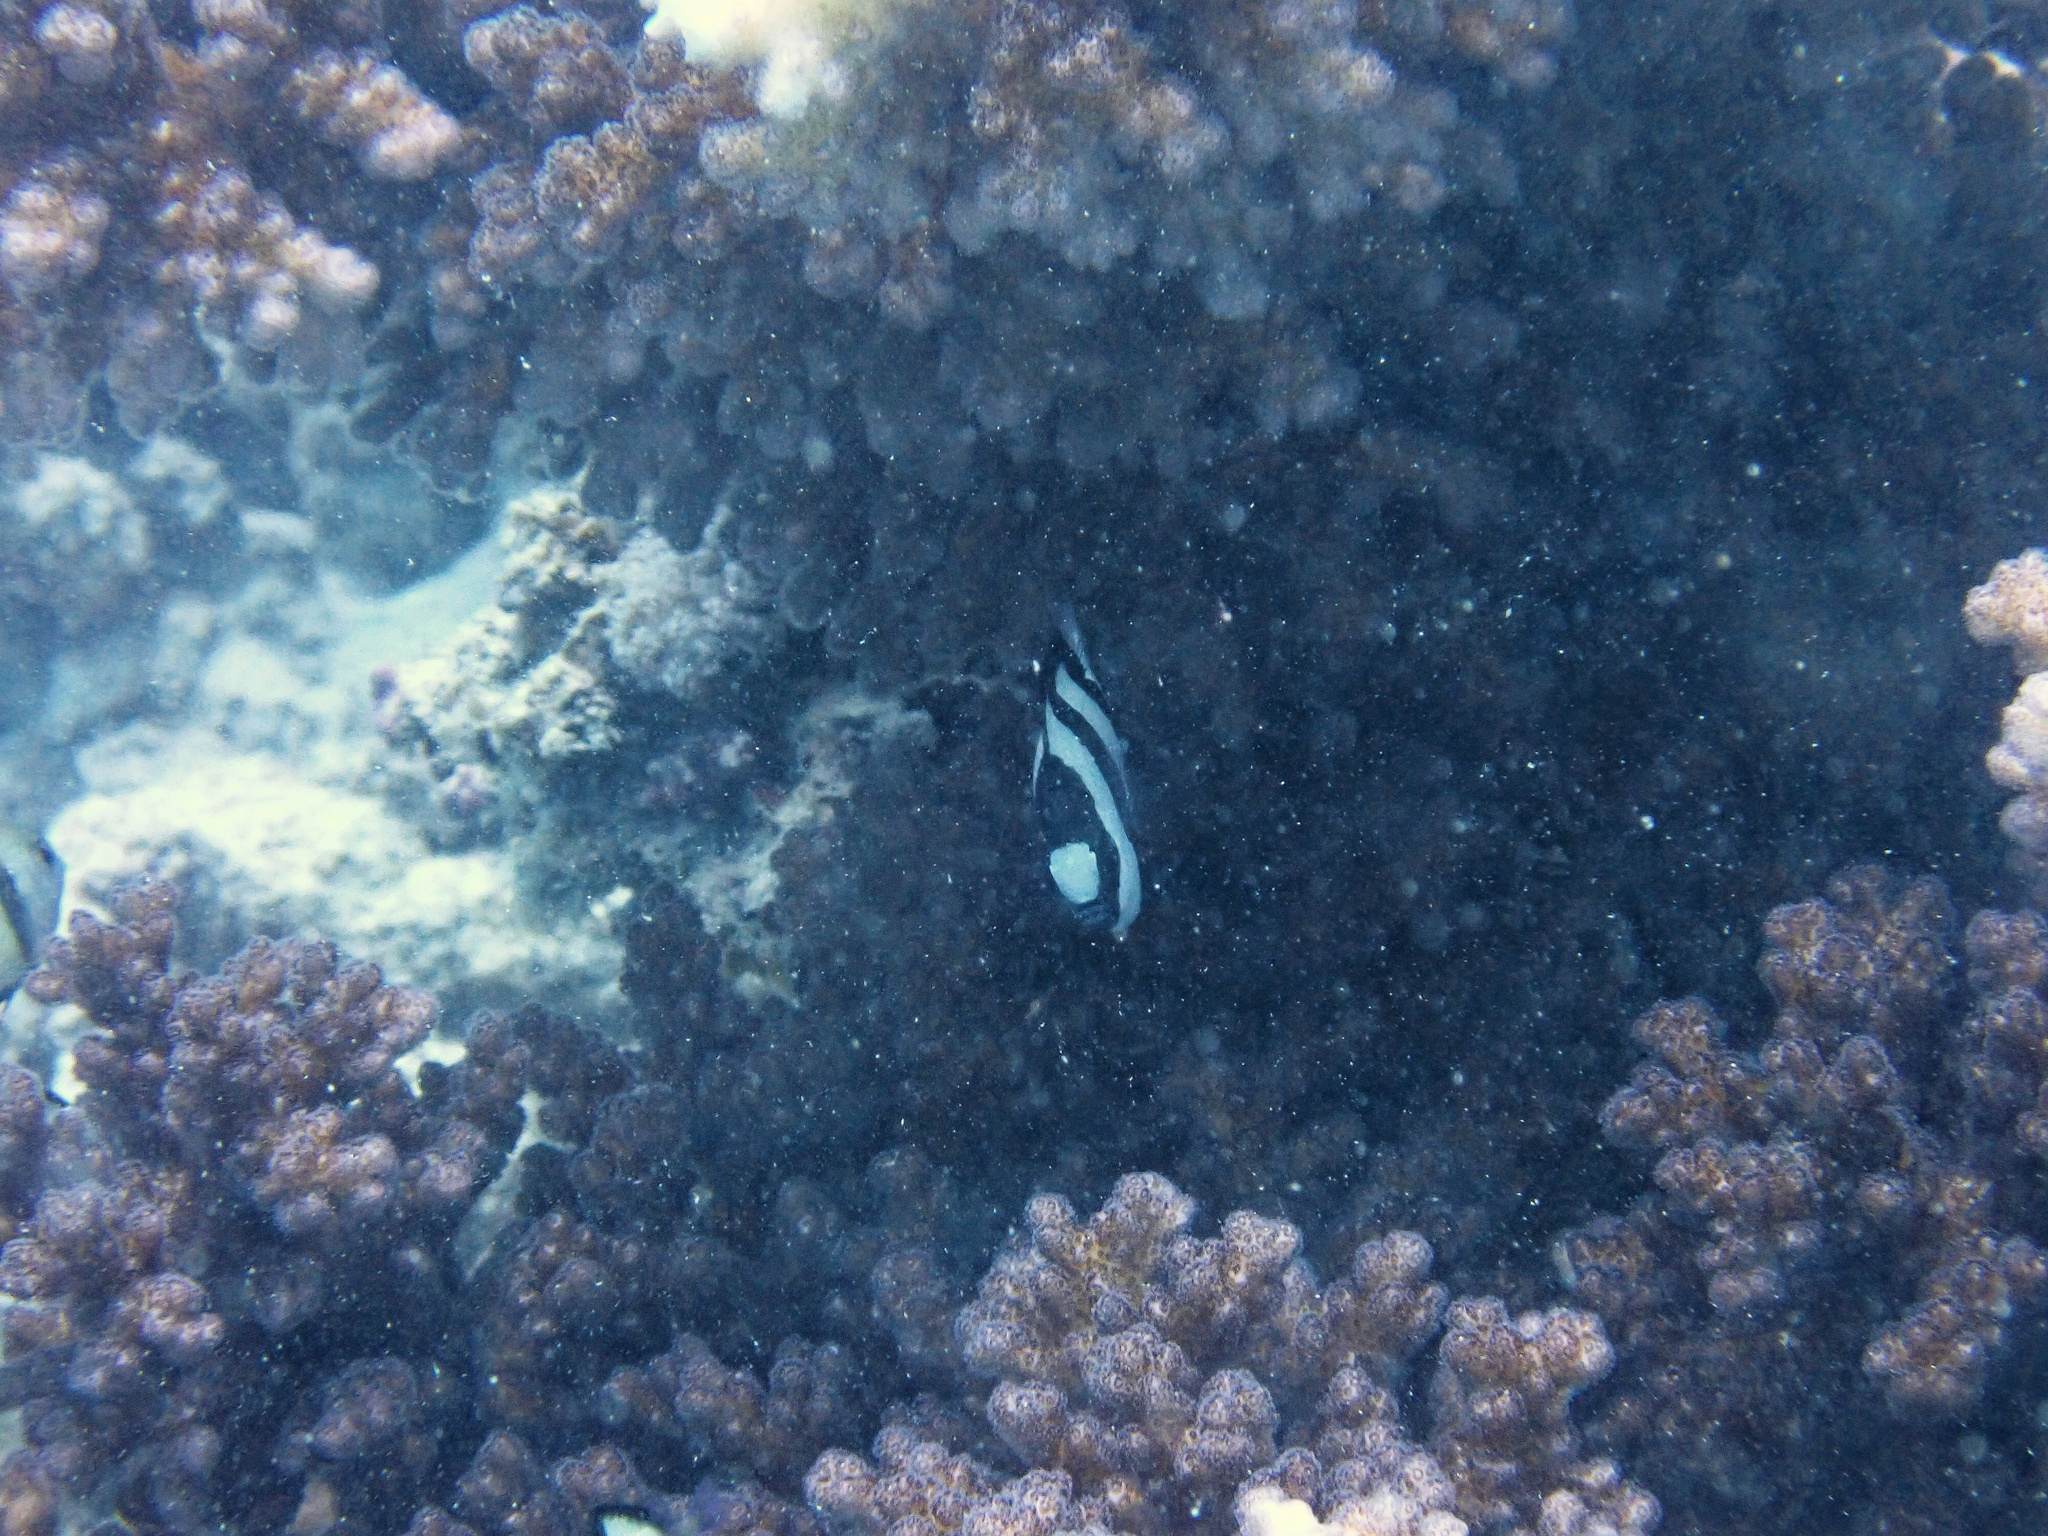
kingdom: Animalia
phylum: Chordata
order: Perciformes
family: Pomacentridae
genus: Dascyllus
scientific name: Dascyllus aruanus
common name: Humbug dascyllus
